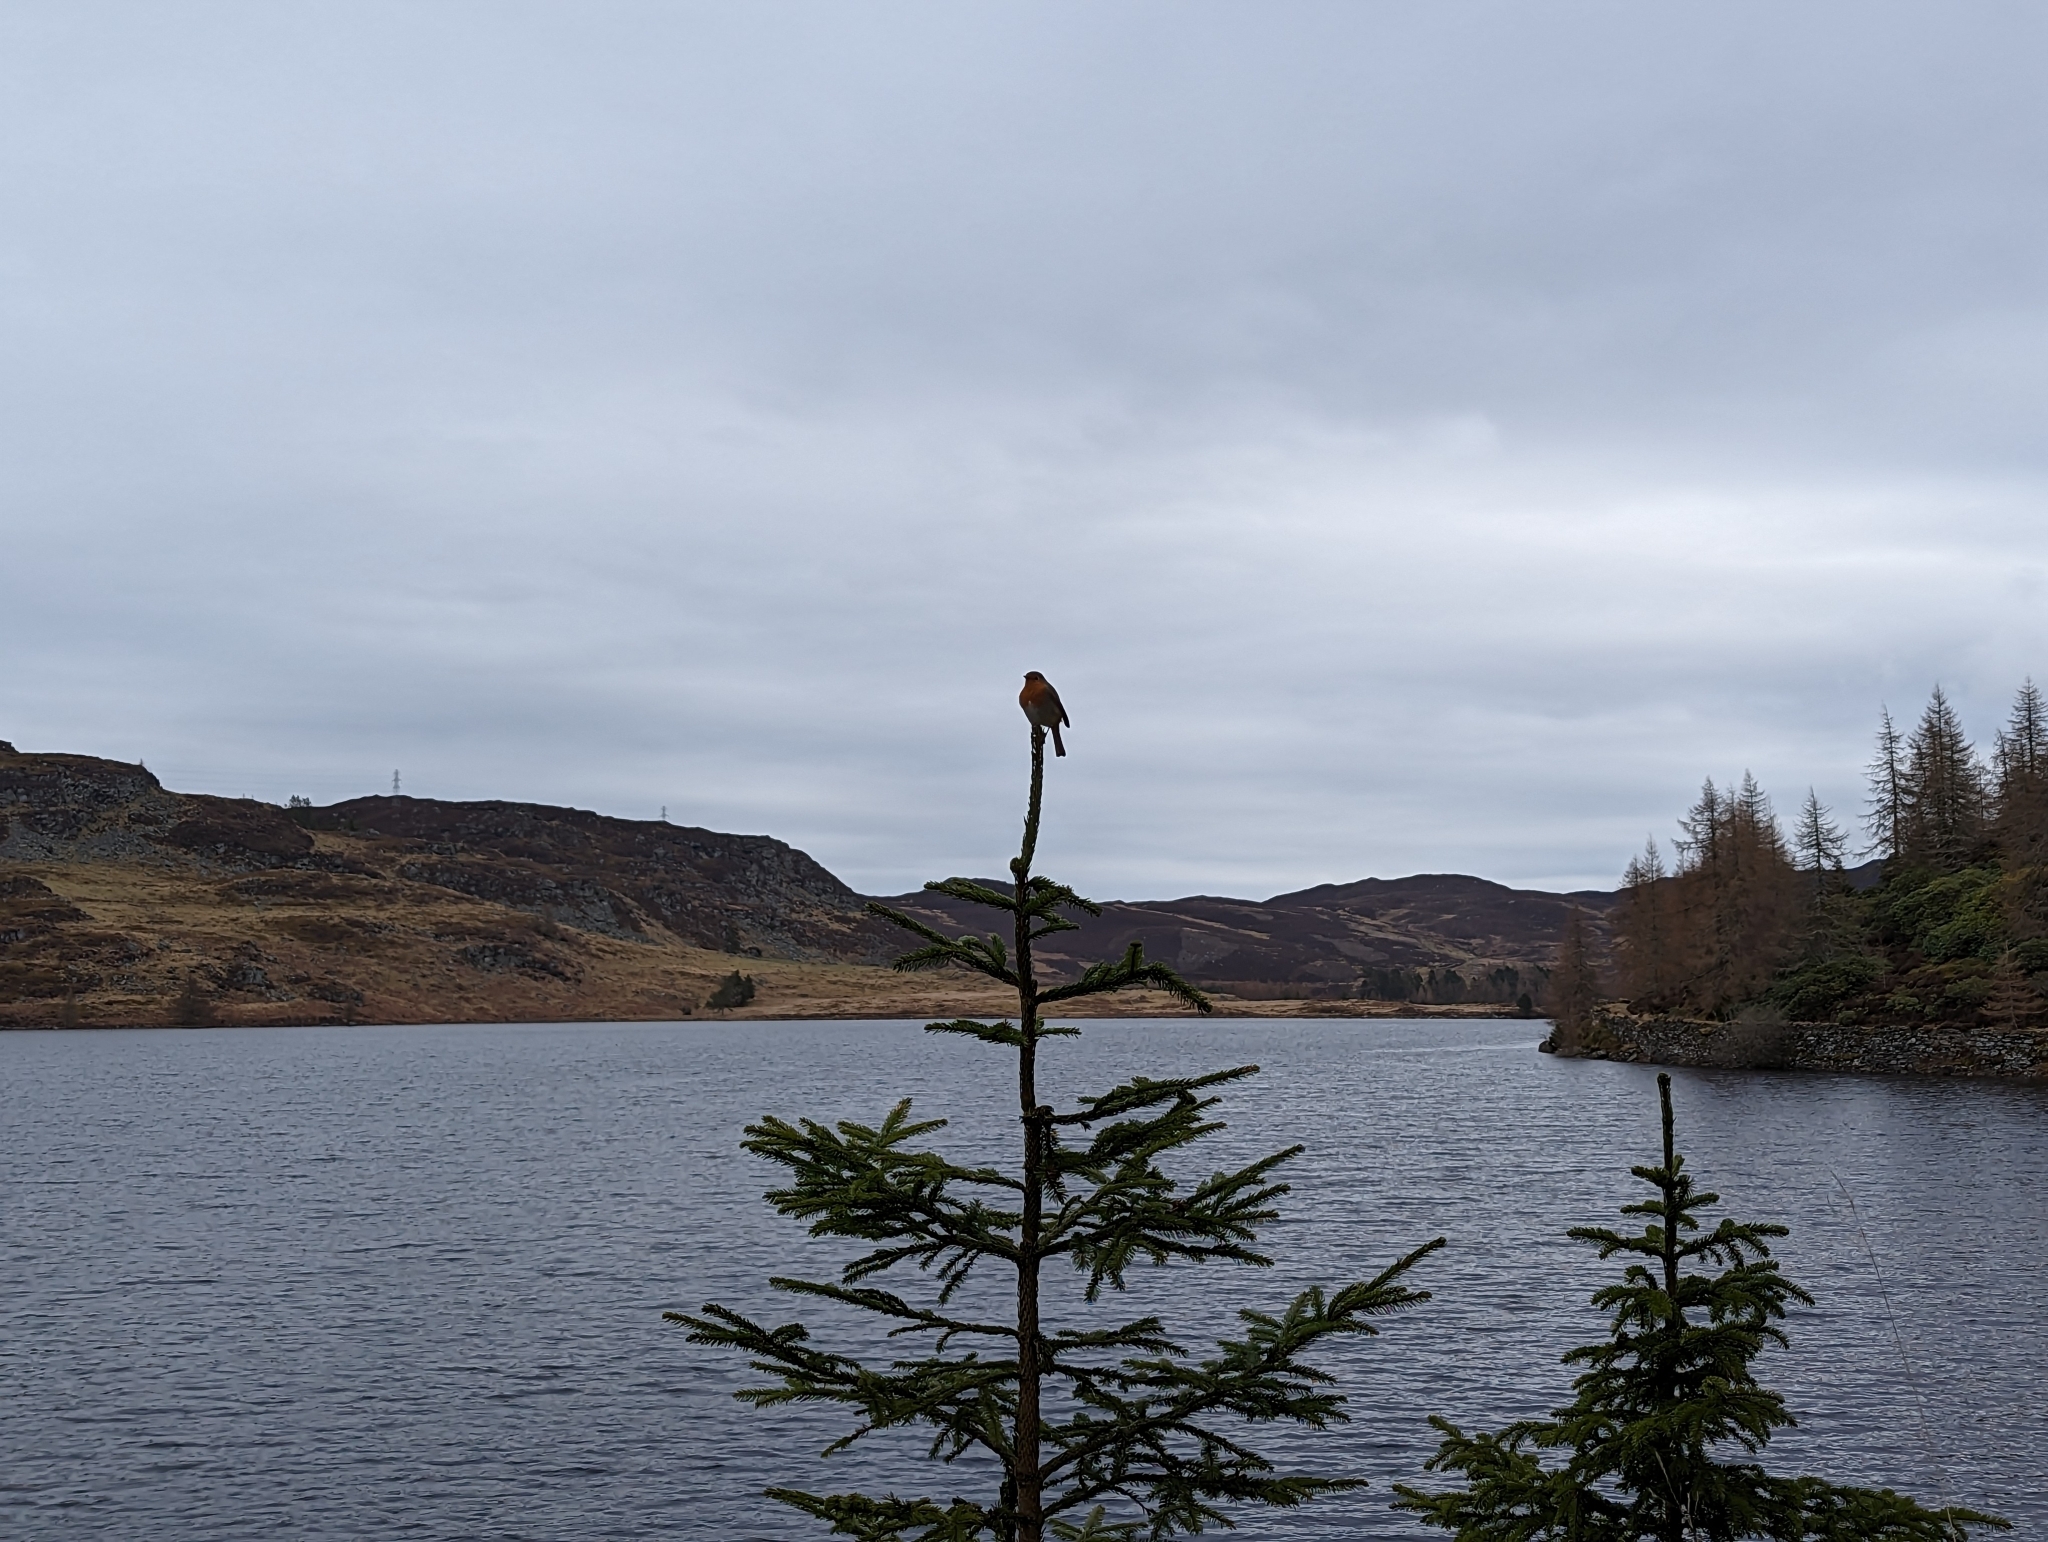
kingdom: Animalia
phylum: Chordata
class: Aves
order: Passeriformes
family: Muscicapidae
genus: Erithacus
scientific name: Erithacus rubecula
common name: European robin
